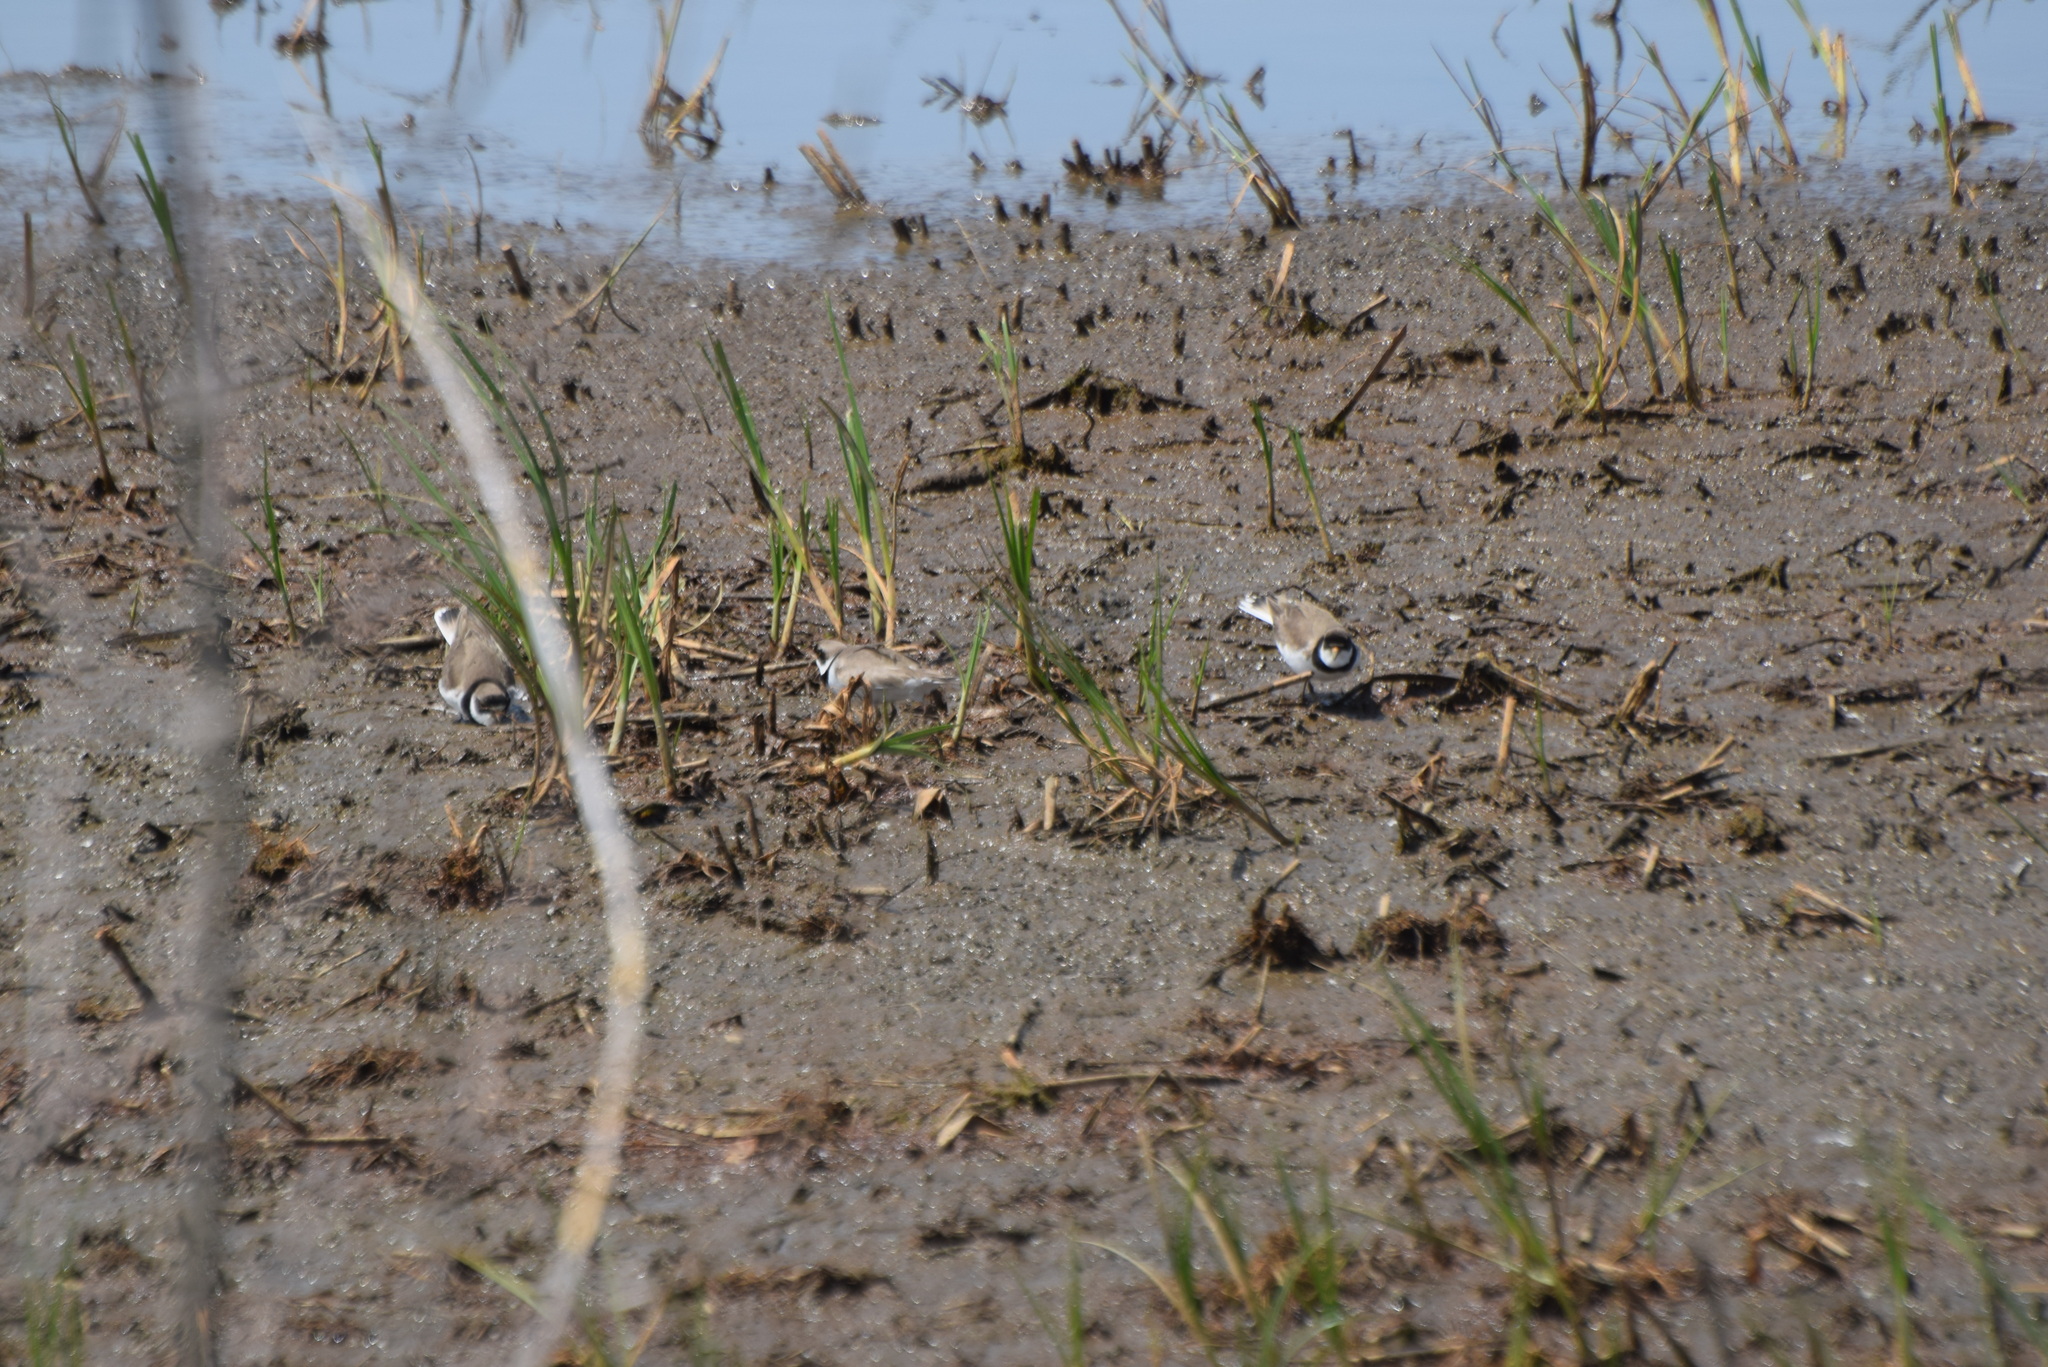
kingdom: Animalia
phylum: Chordata
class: Aves
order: Charadriiformes
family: Charadriidae
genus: Charadrius
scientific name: Charadrius semipalmatus
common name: Semipalmated plover
